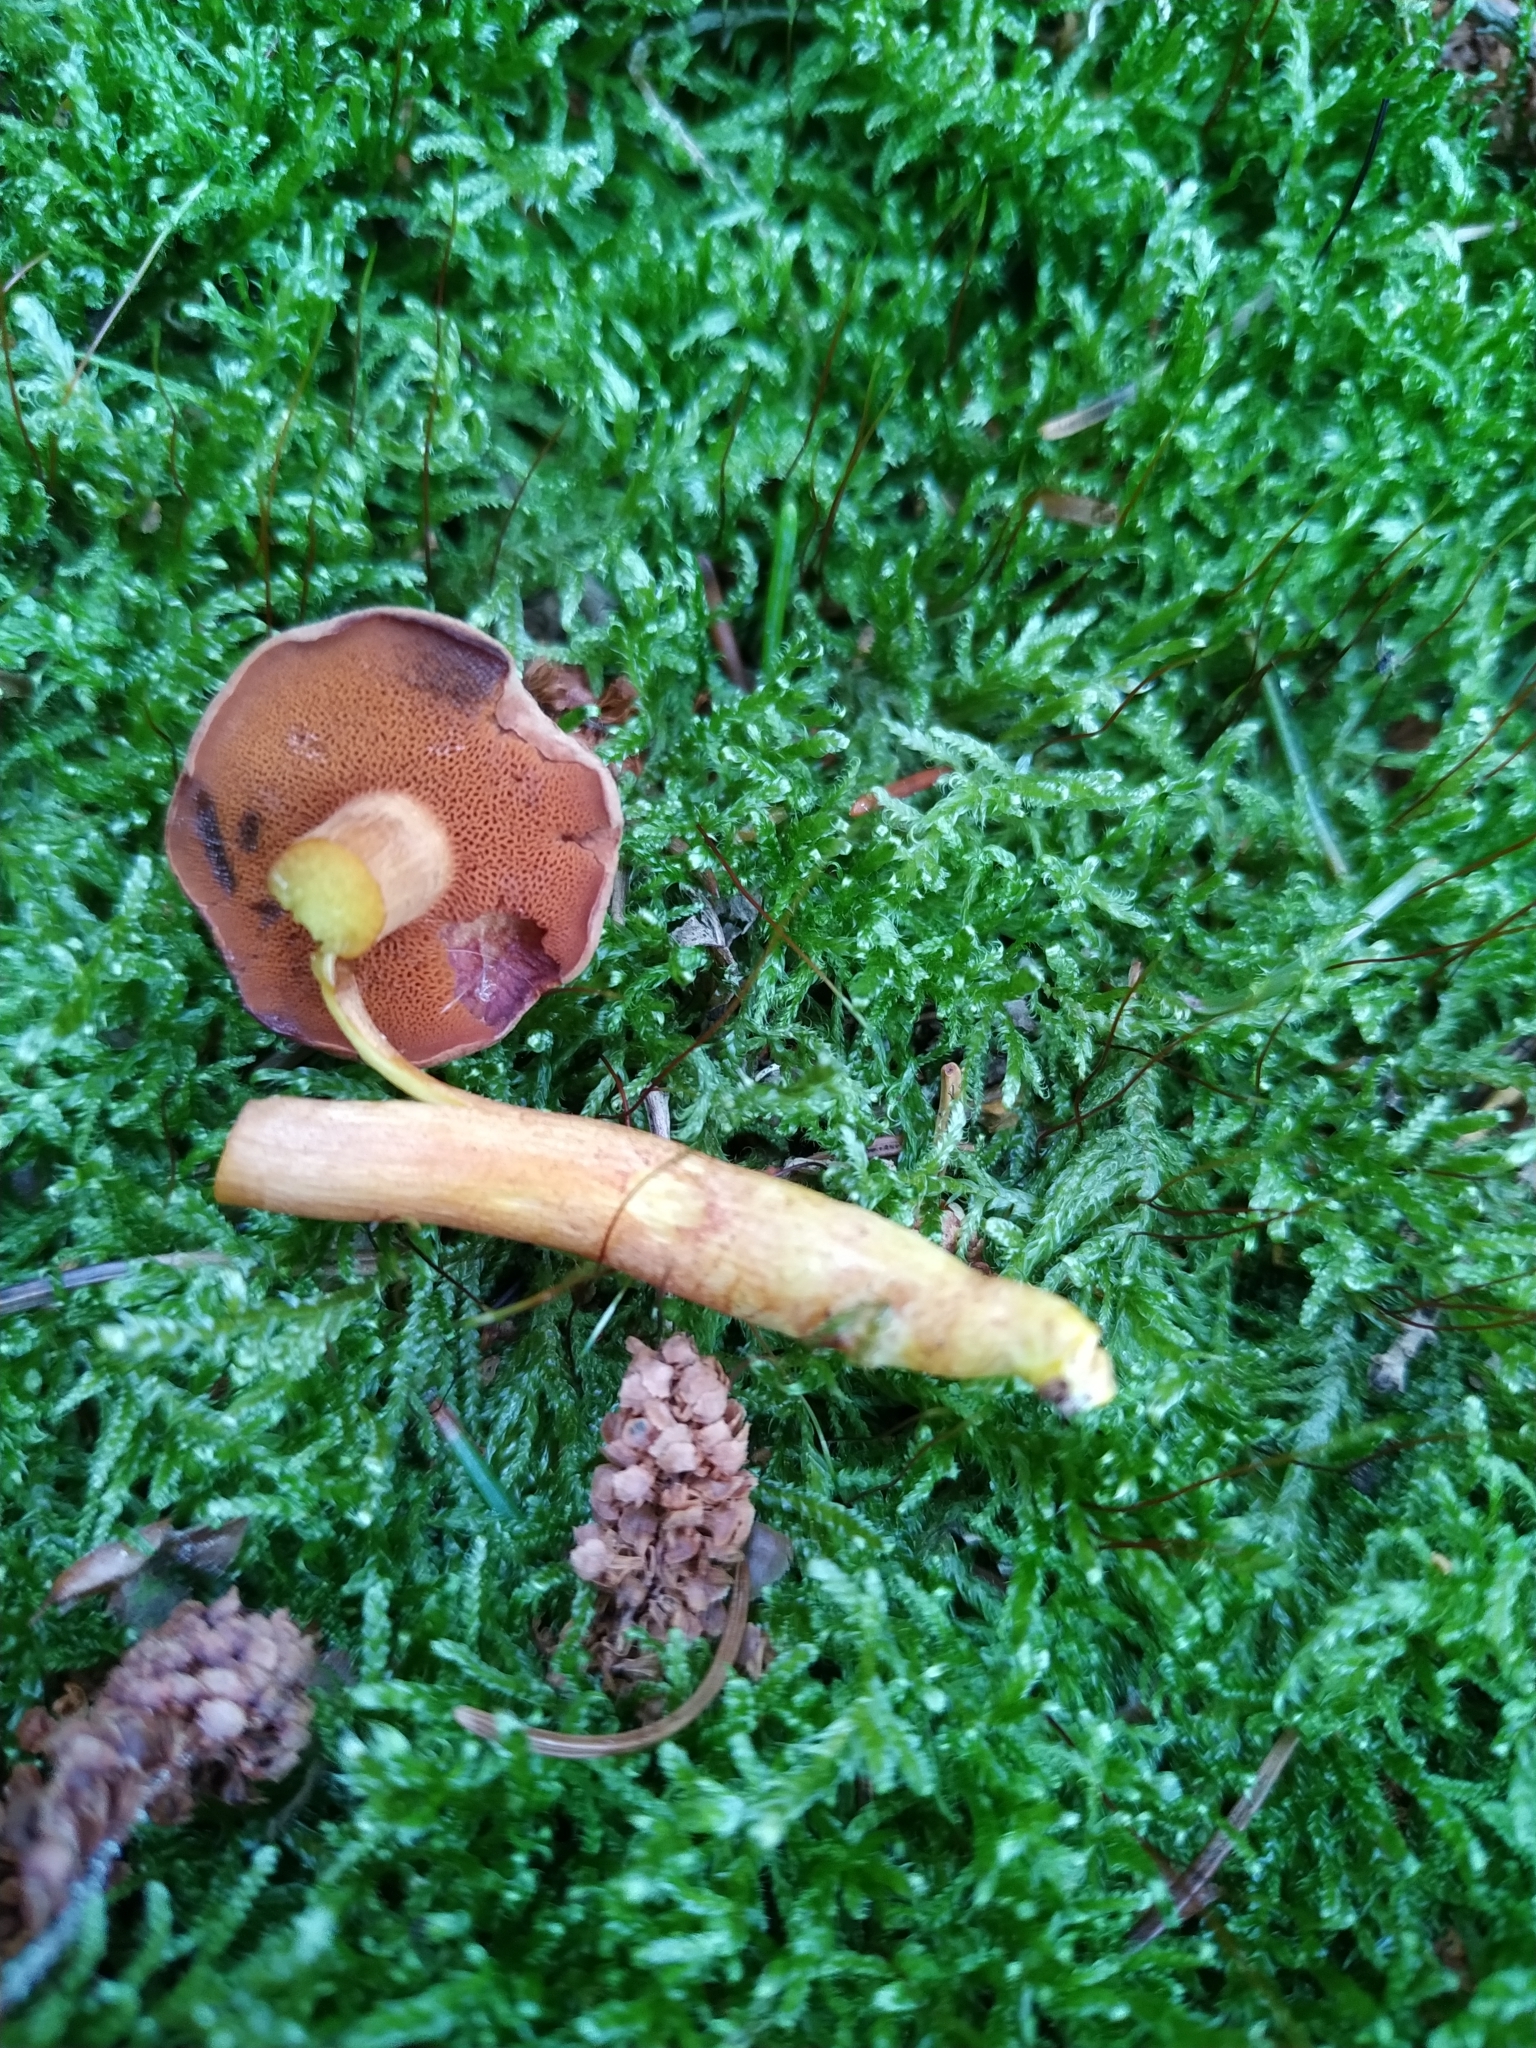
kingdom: Fungi
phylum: Basidiomycota
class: Agaricomycetes
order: Boletales
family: Boletaceae
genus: Chalciporus
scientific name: Chalciporus piperatus
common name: Peppery bolete
